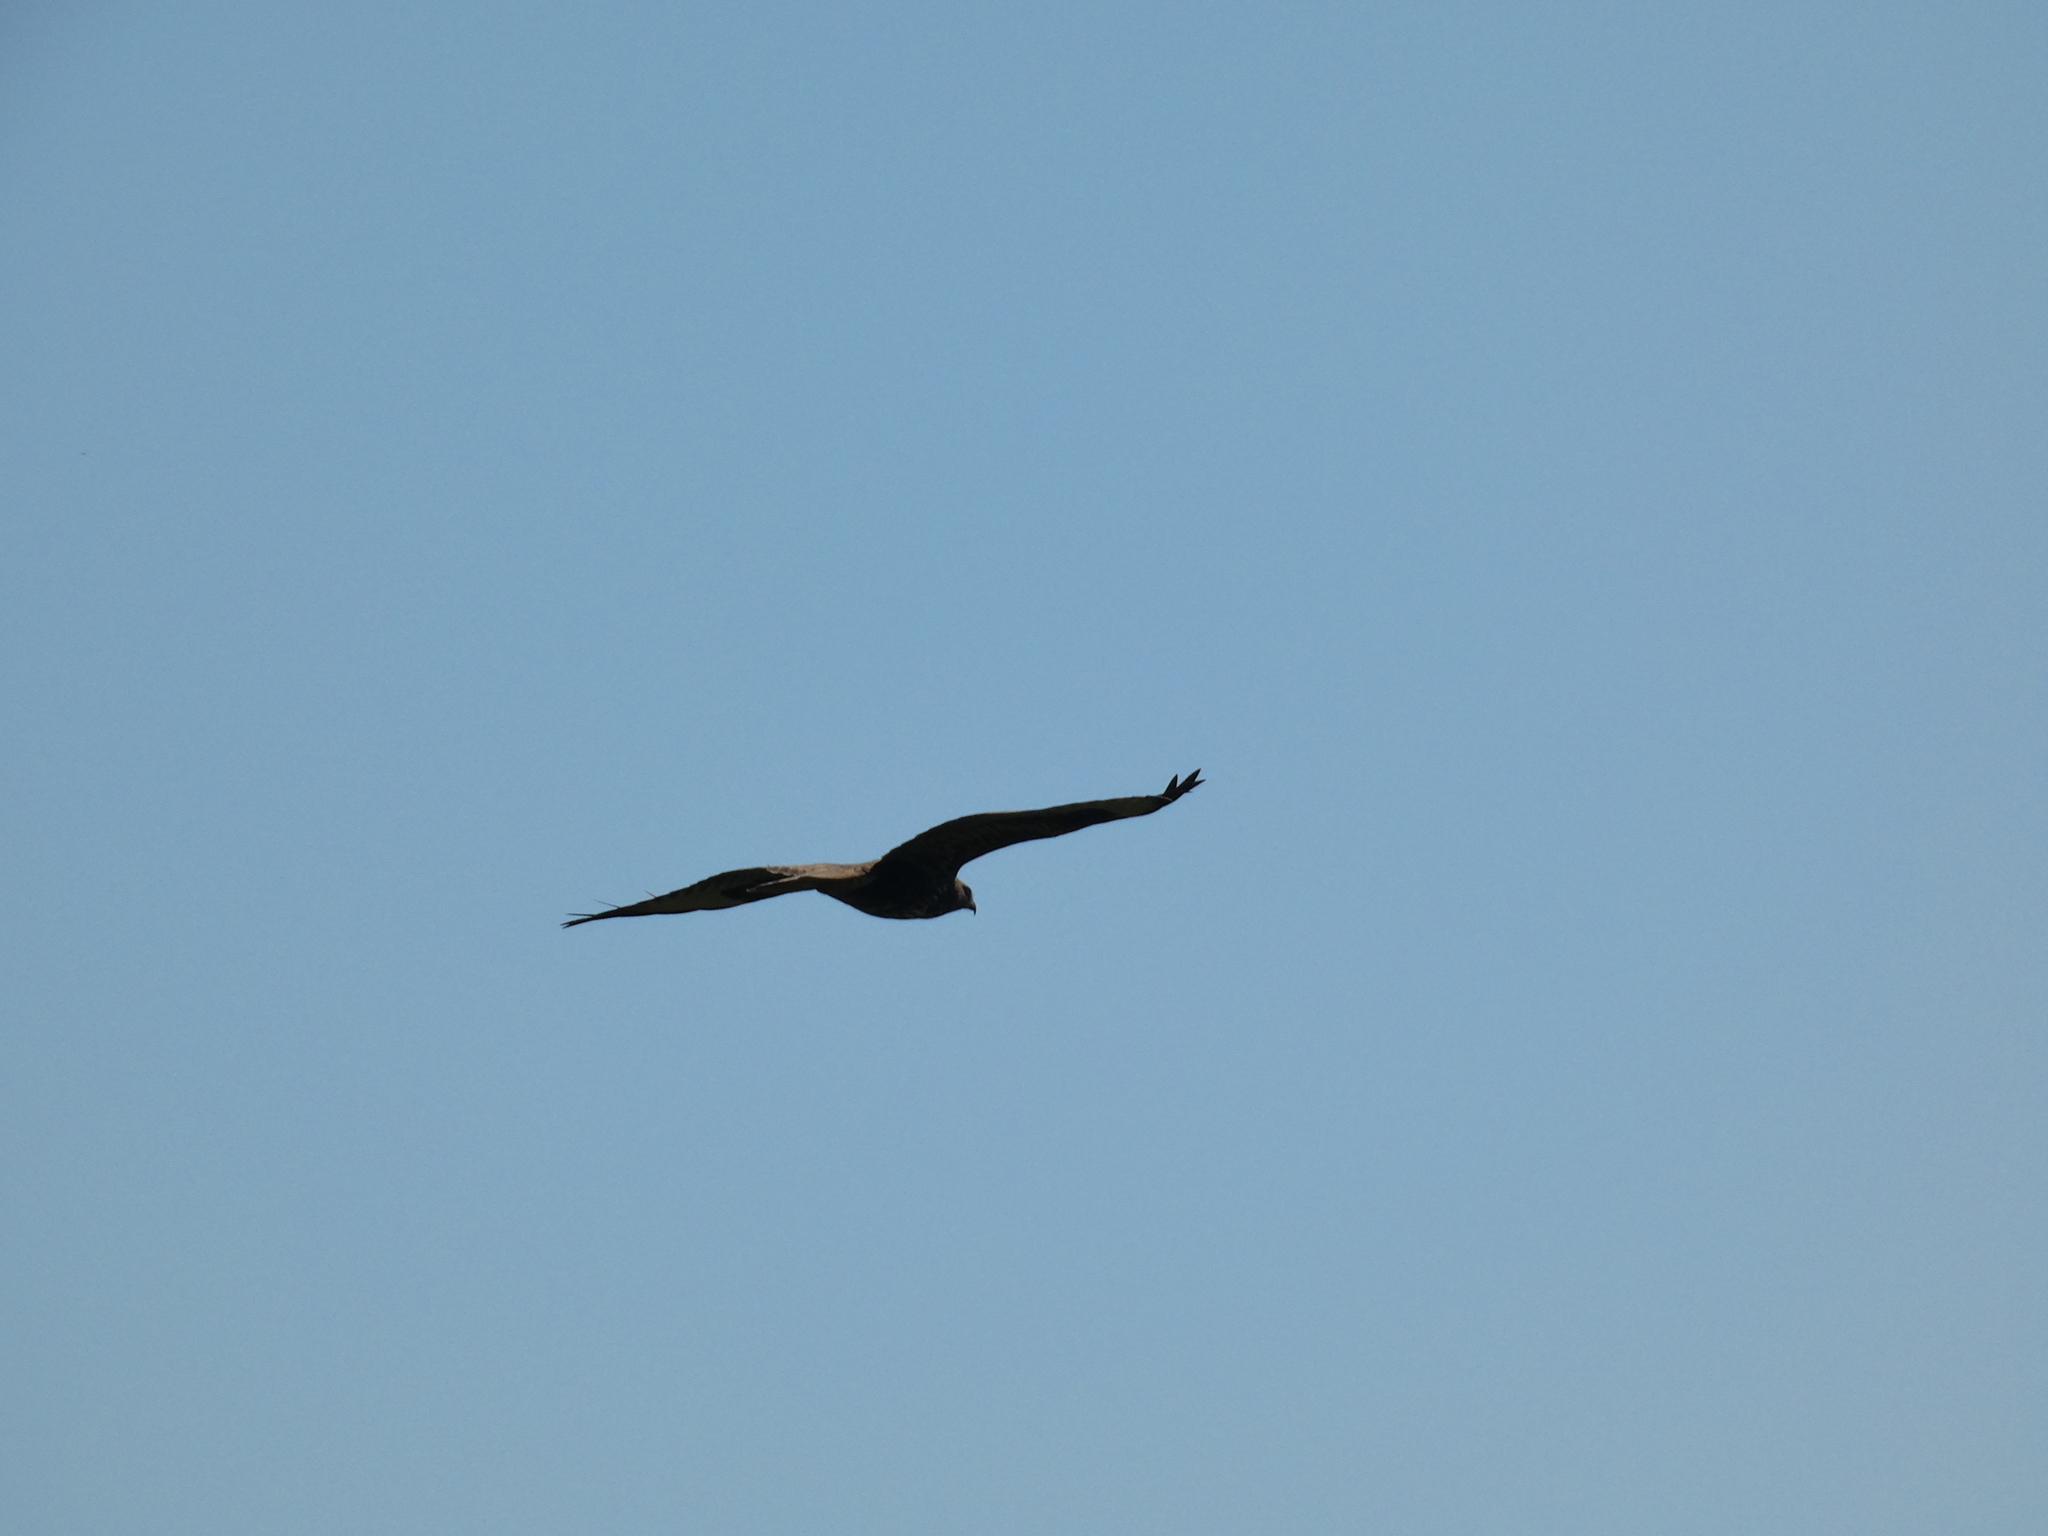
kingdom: Animalia
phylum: Chordata
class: Aves
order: Accipitriformes
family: Accipitridae
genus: Buteo
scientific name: Buteo buteo
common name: Common buzzard
